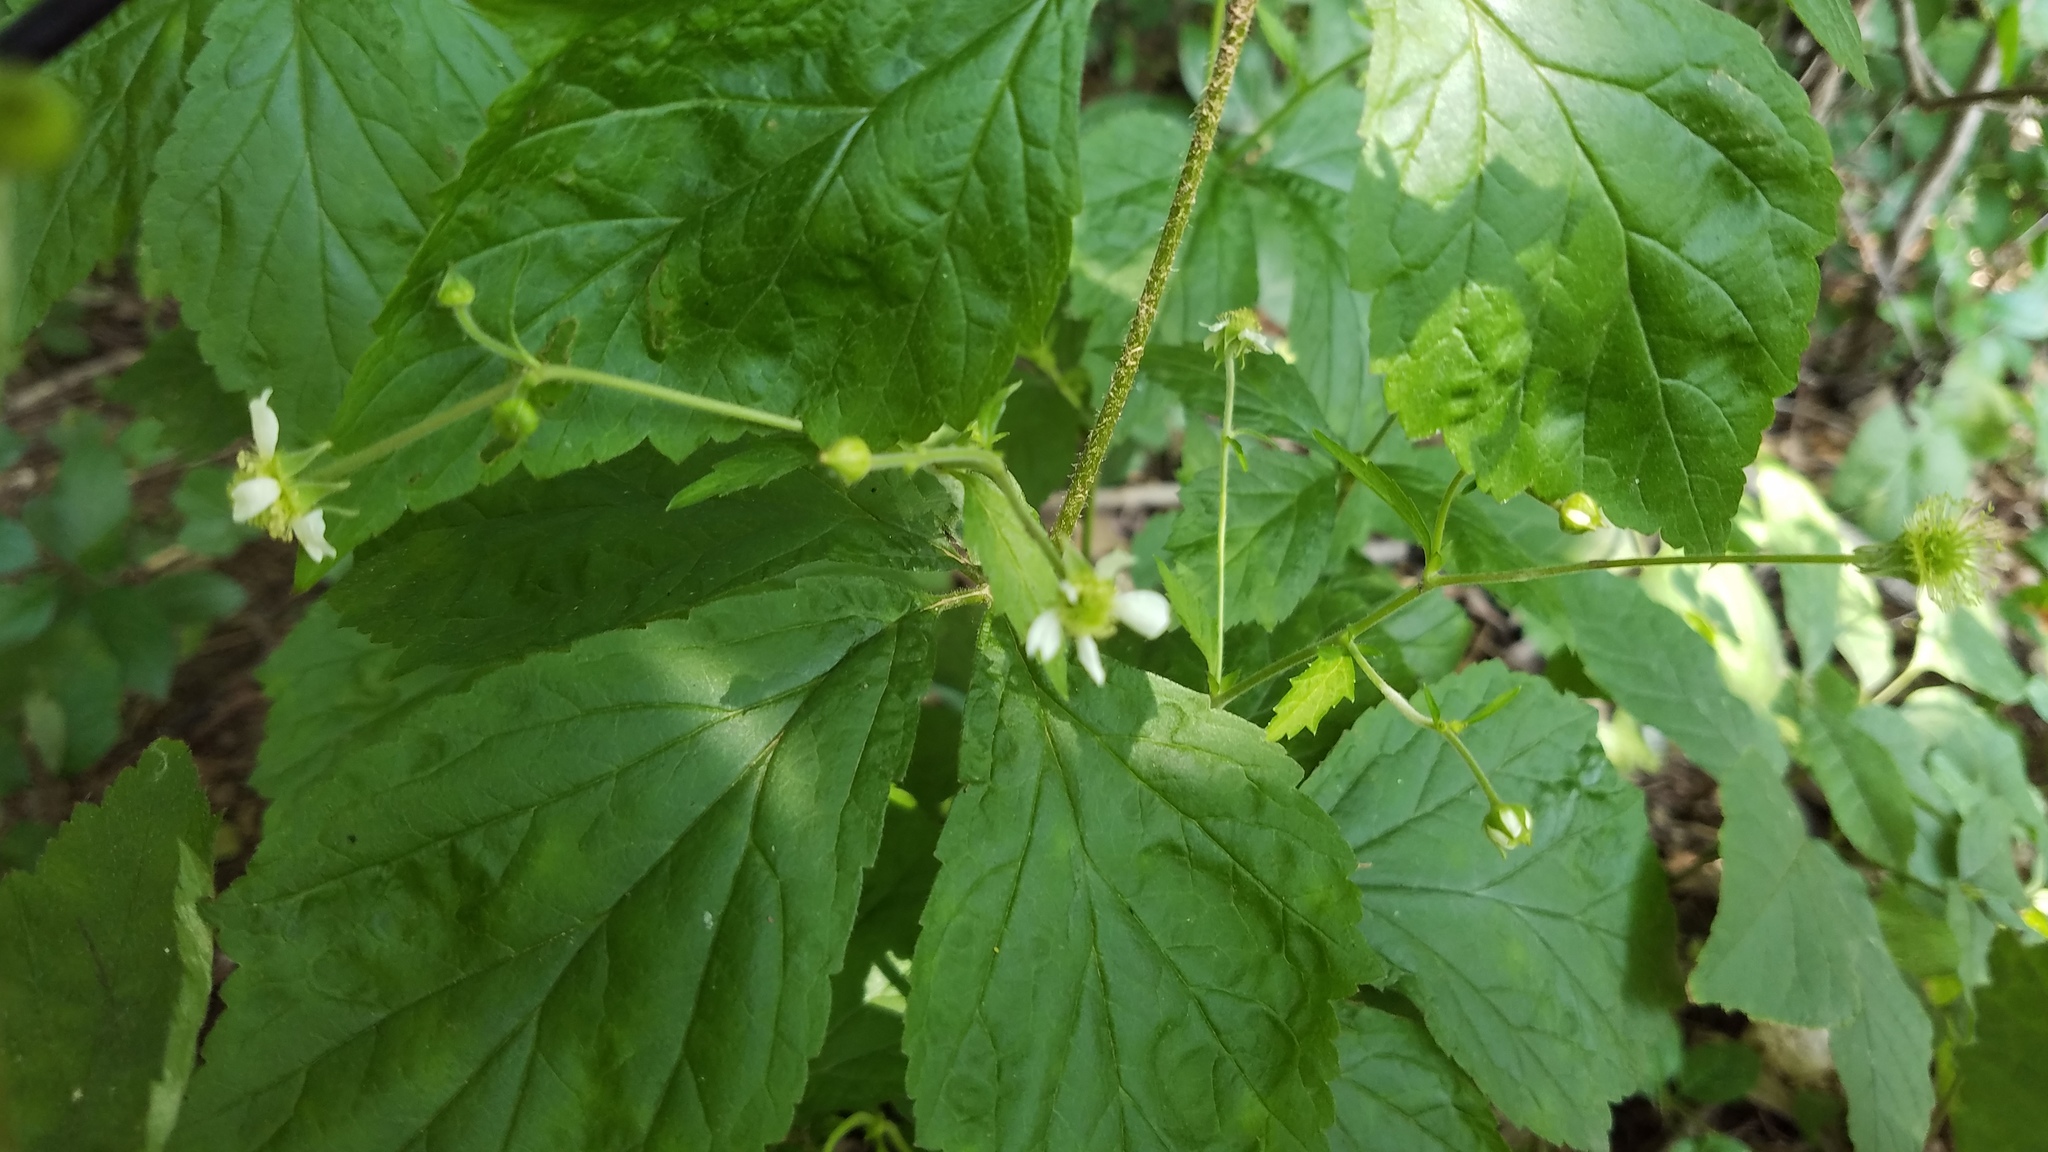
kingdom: Plantae
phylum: Tracheophyta
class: Magnoliopsida
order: Rosales
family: Rosaceae
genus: Geum
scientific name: Geum canadense
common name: White avens
